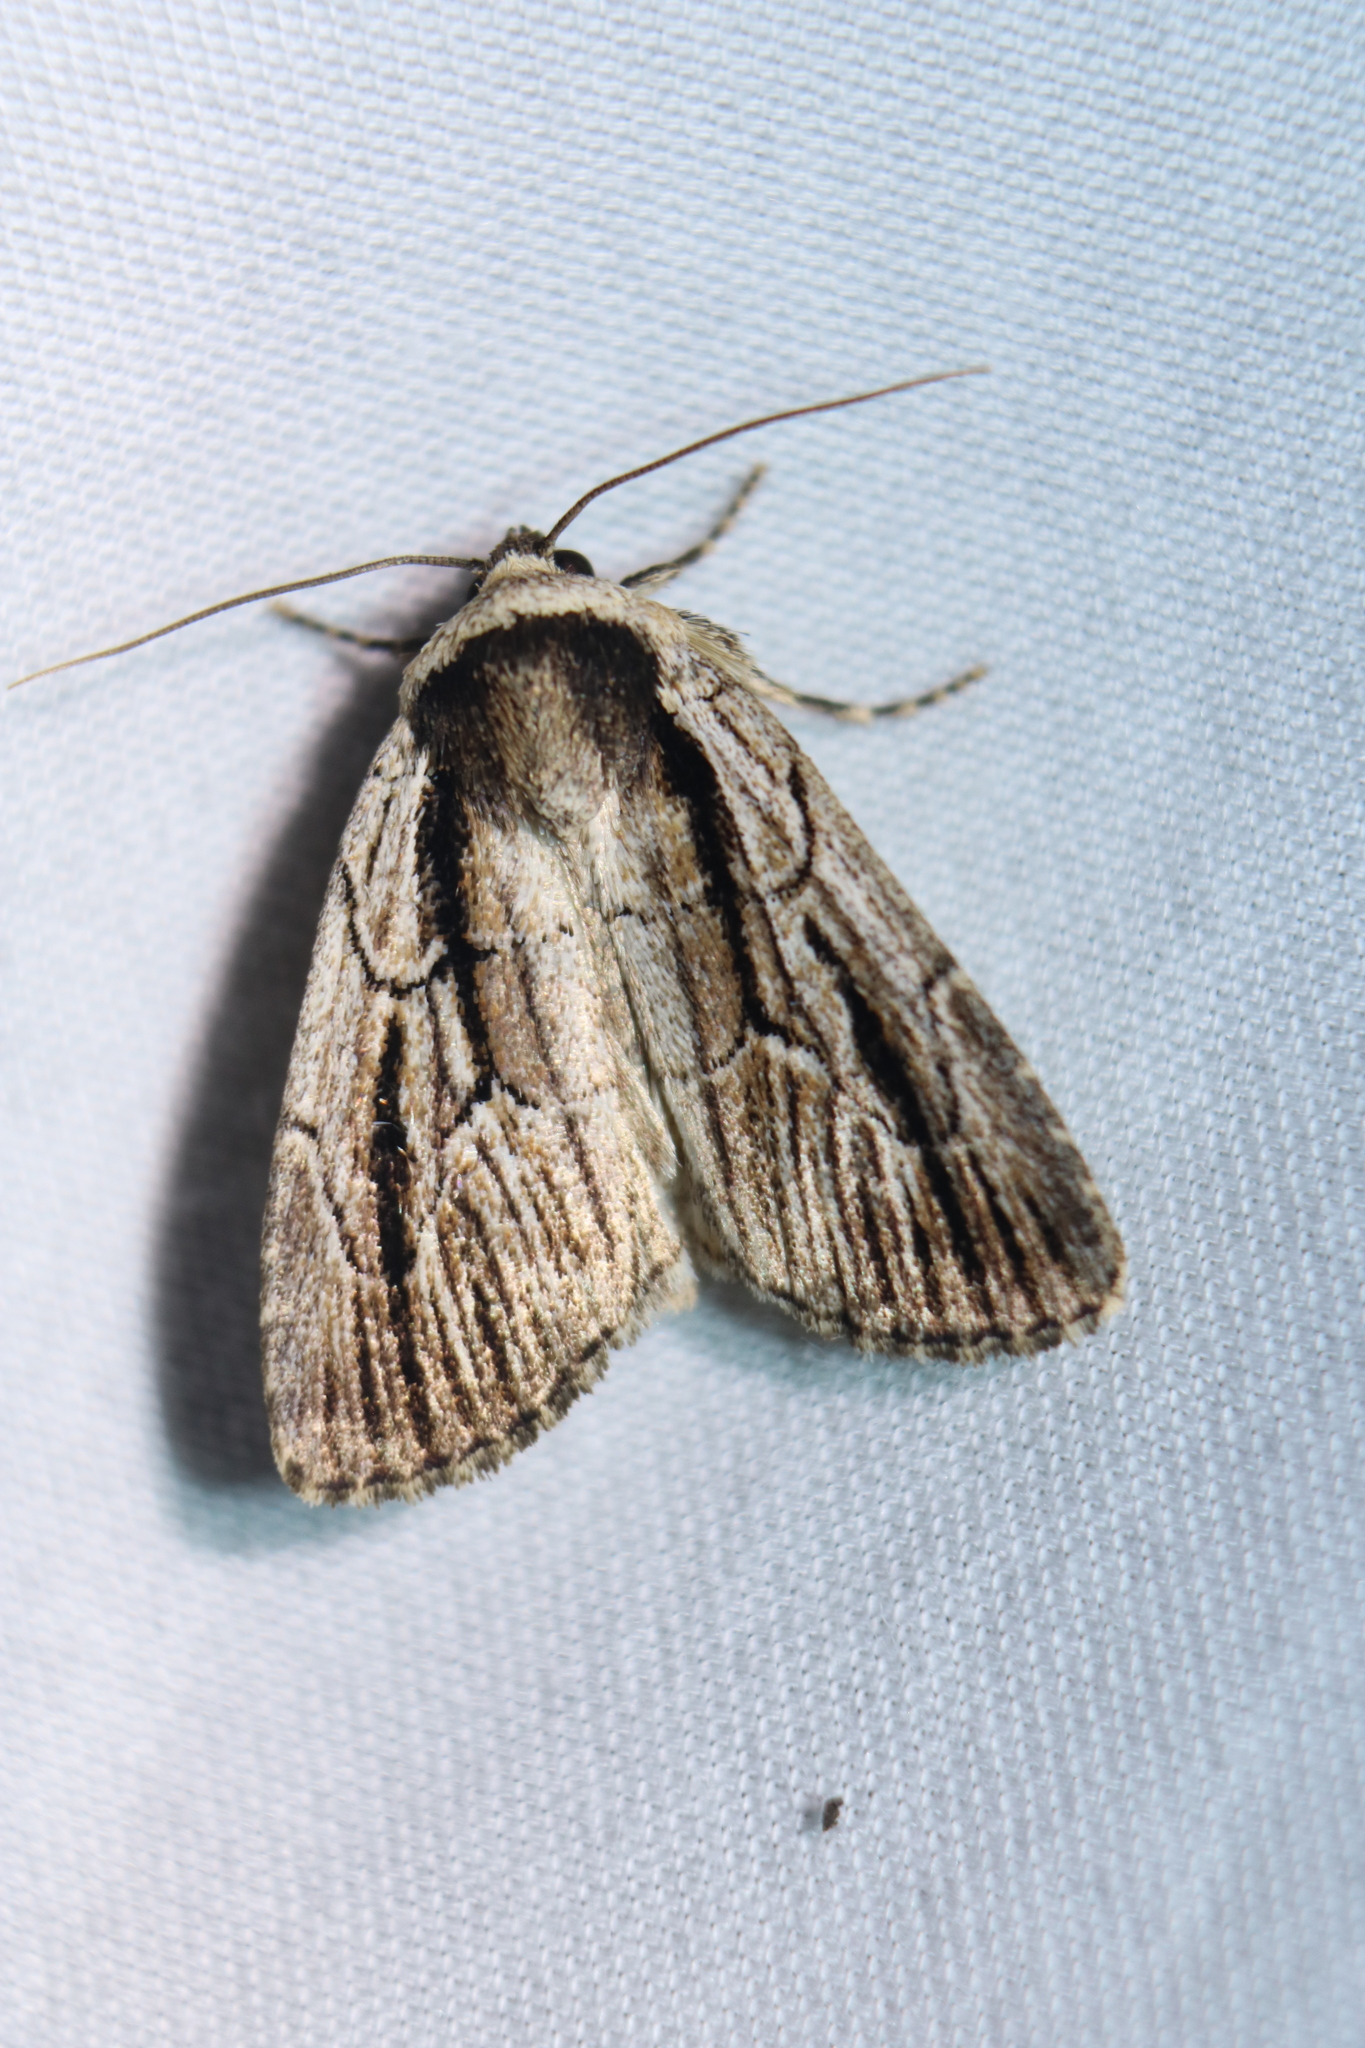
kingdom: Animalia
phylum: Arthropoda
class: Insecta
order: Lepidoptera
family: Noctuidae
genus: Sympistis
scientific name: Sympistis badistriga
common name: Brown-lined sallow moth
